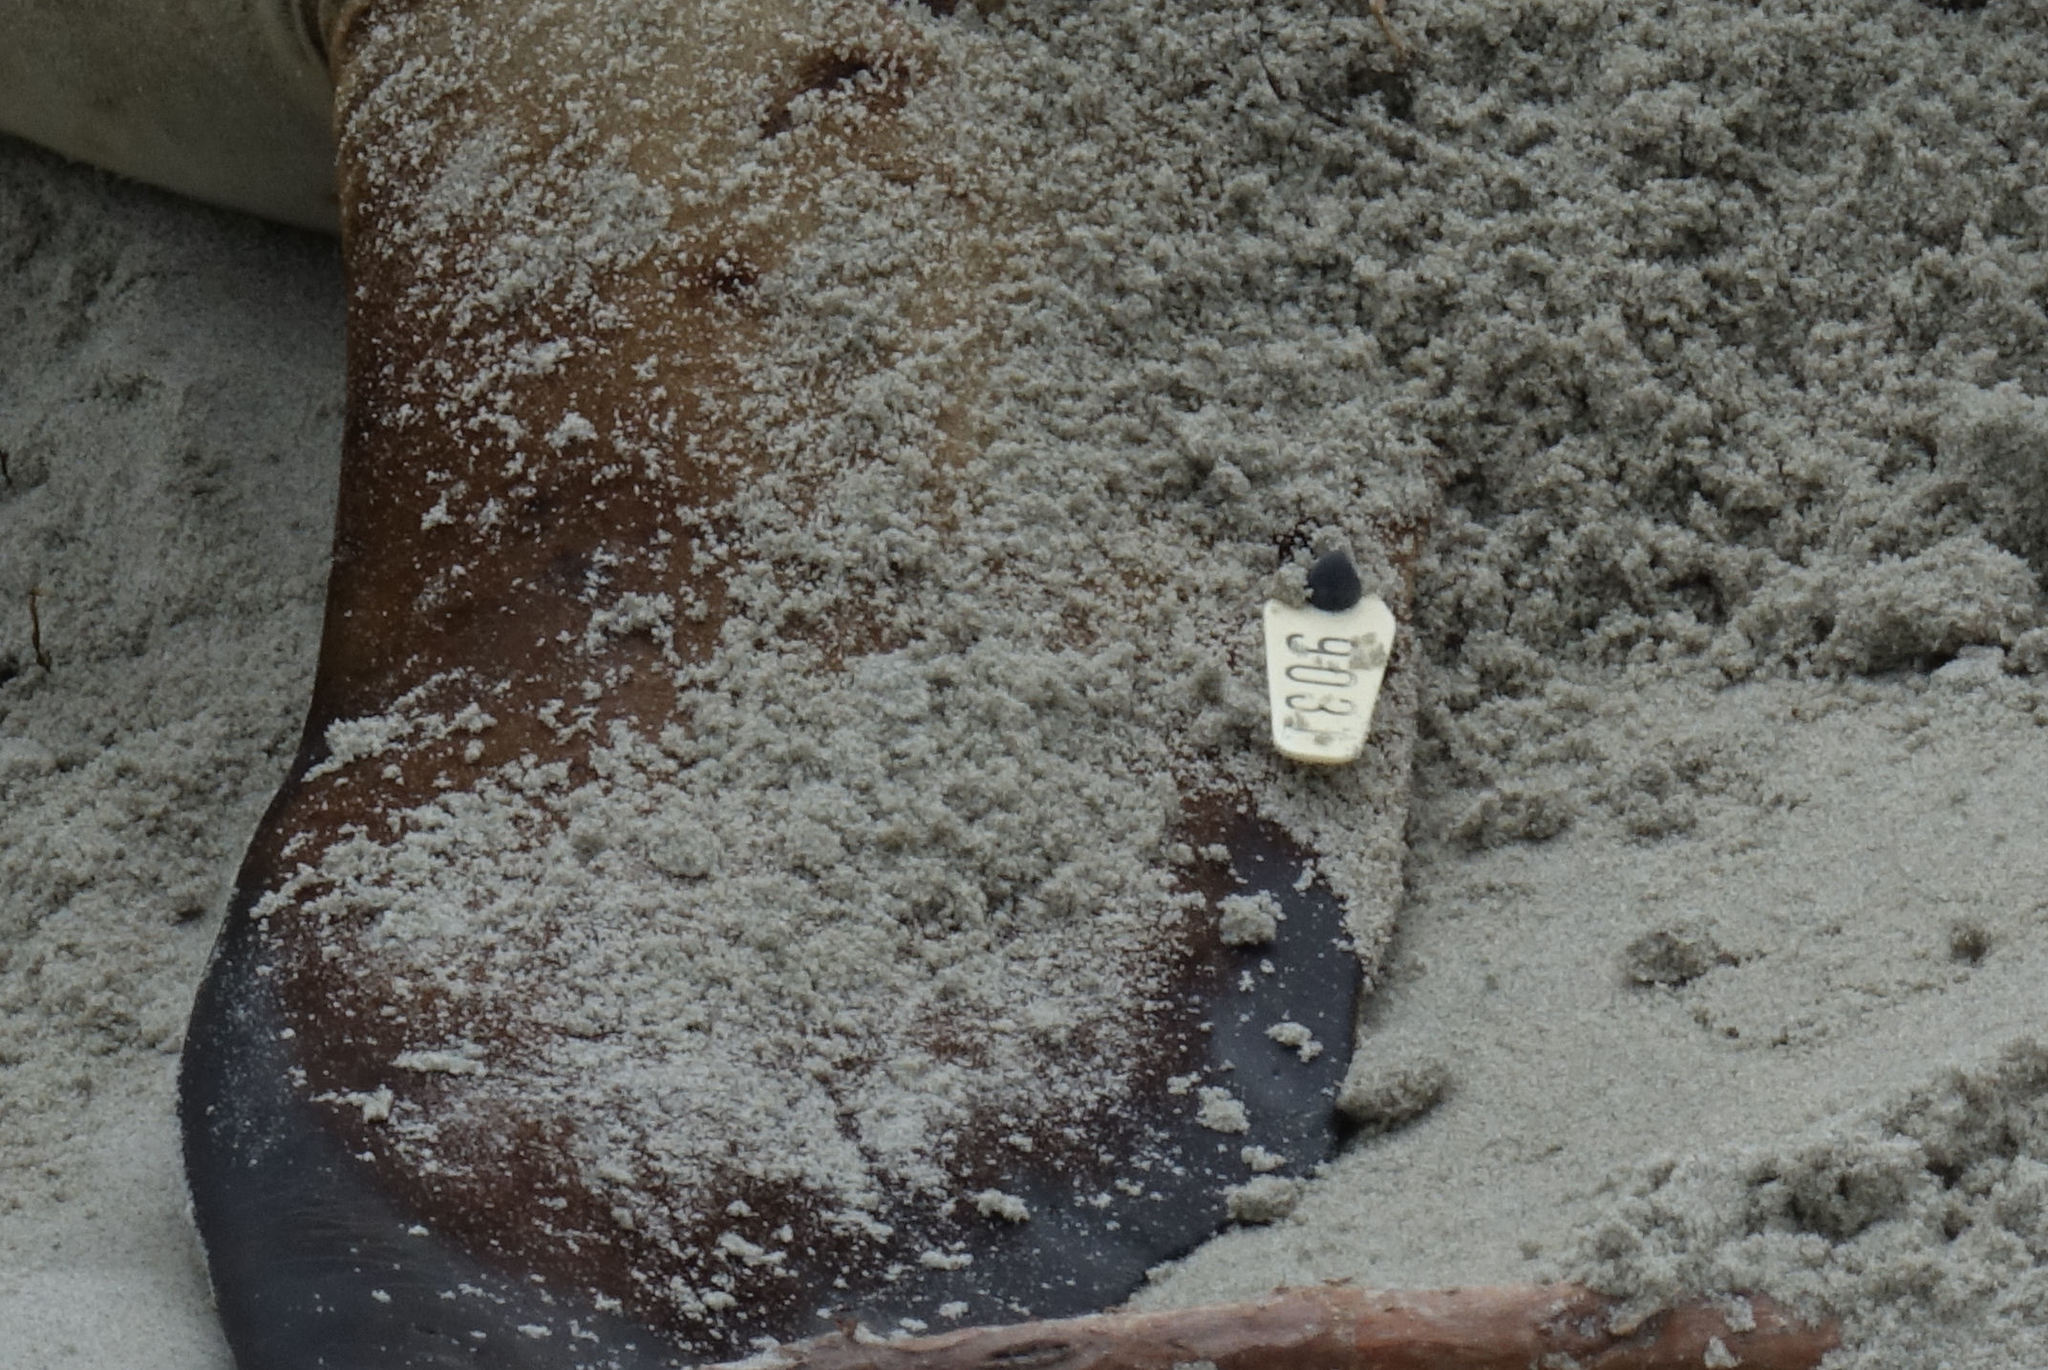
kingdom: Animalia
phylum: Chordata
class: Mammalia
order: Carnivora
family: Otariidae
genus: Phocarctos
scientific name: Phocarctos hookeri
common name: New zealand sea lion
